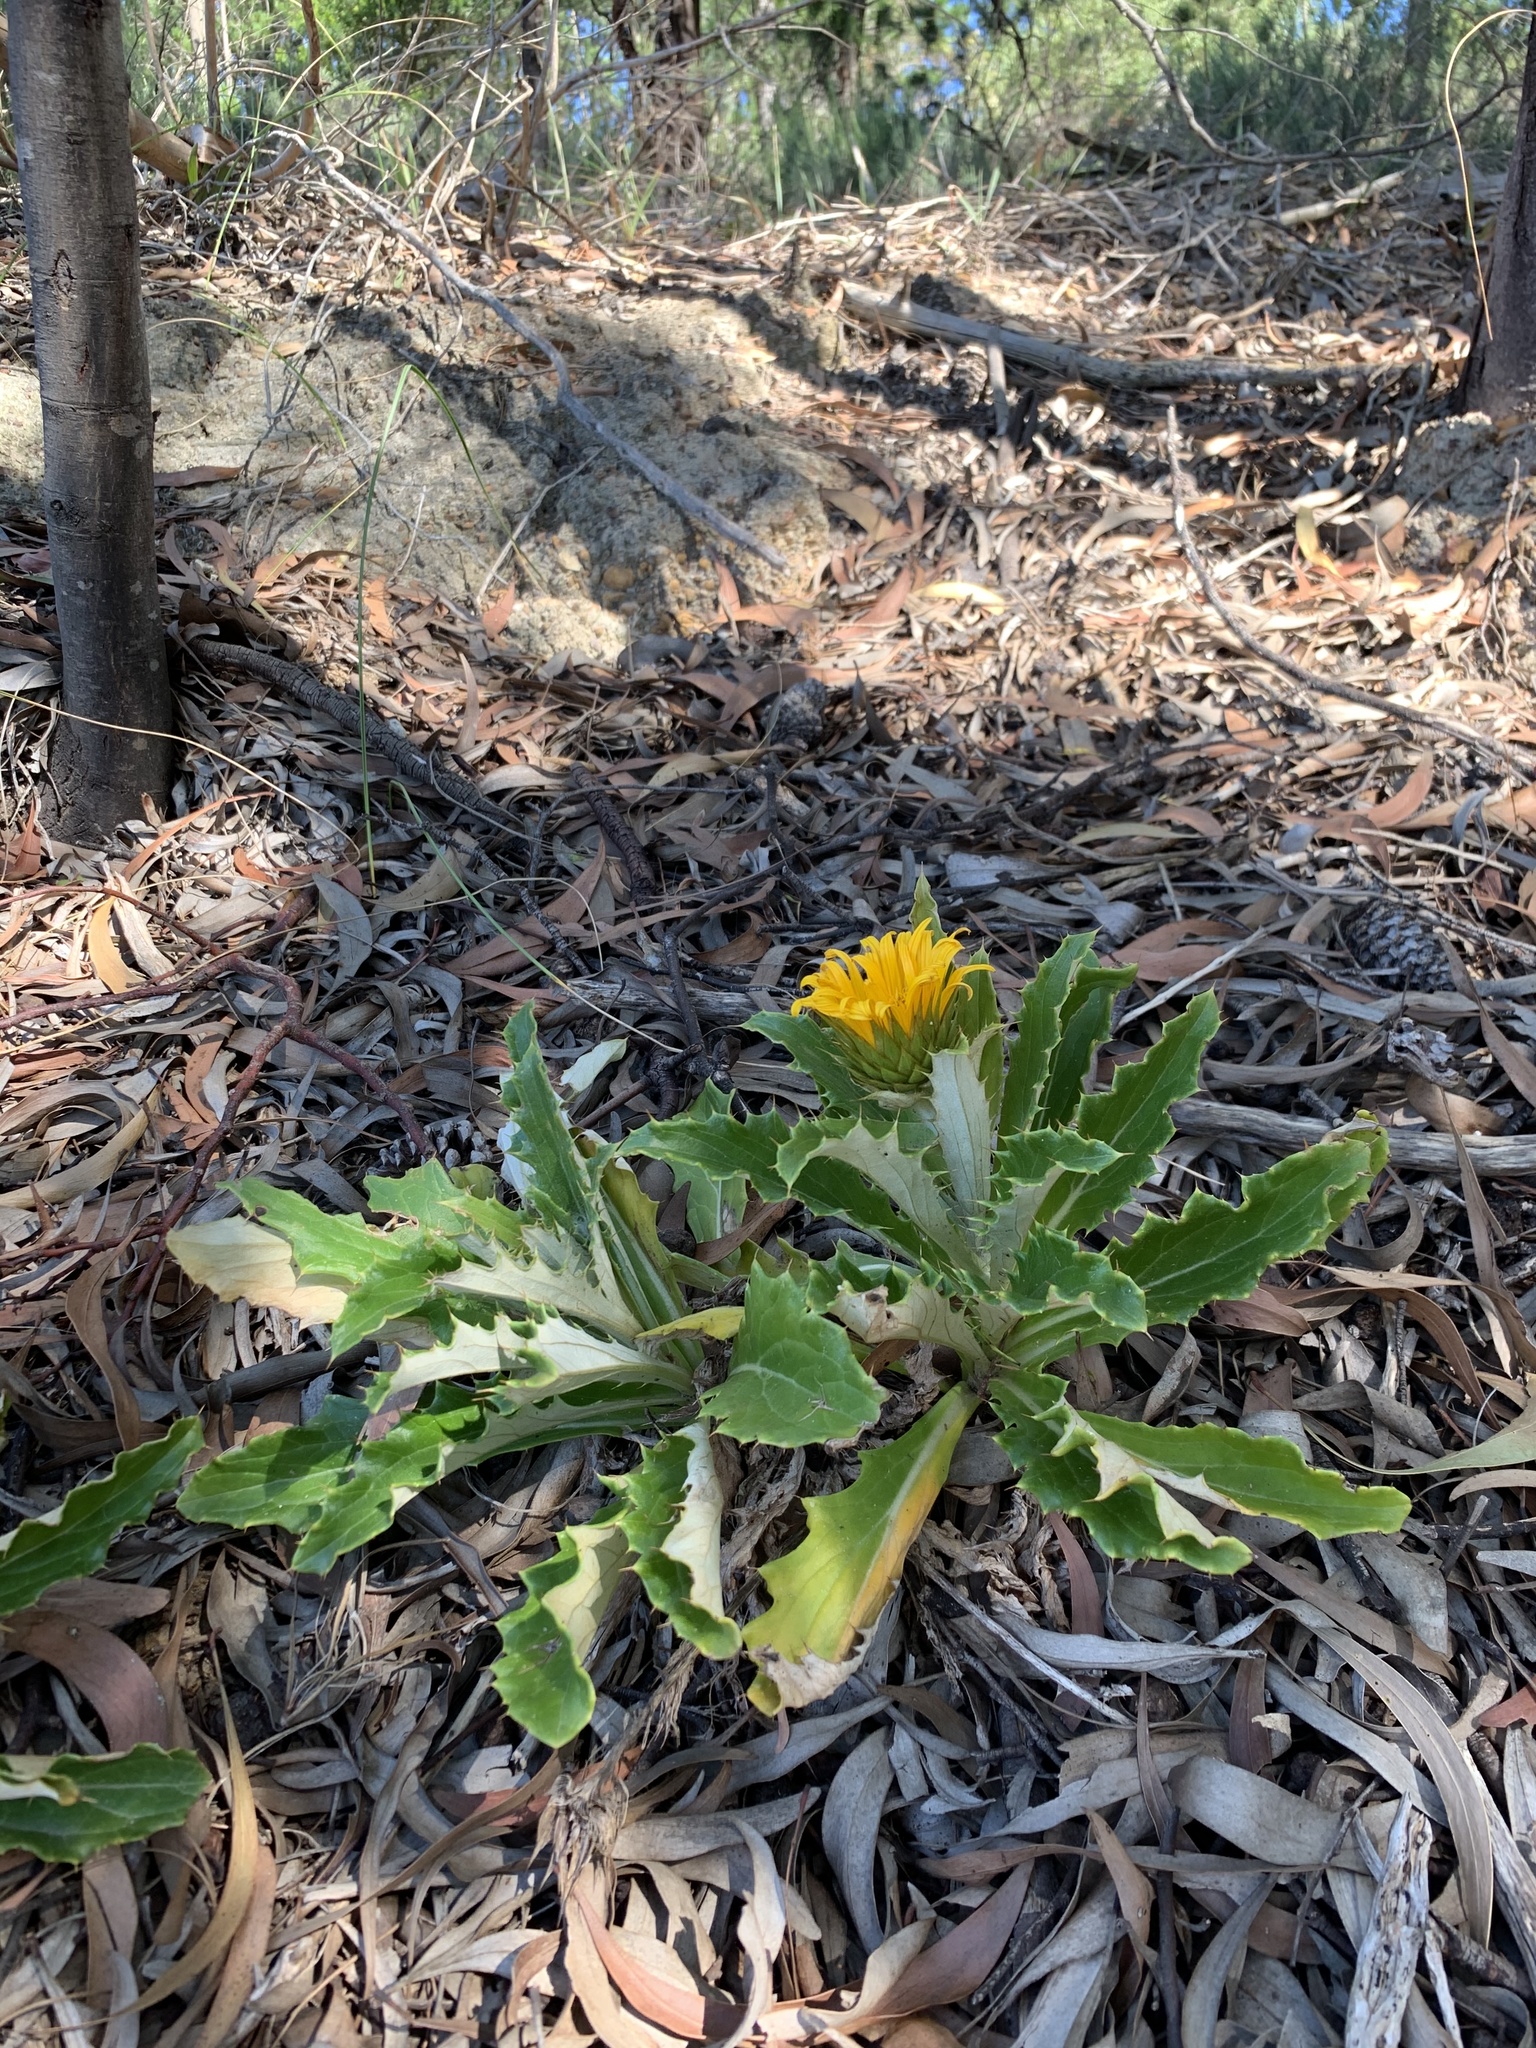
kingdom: Plantae
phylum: Tracheophyta
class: Magnoliopsida
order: Asterales
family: Asteraceae
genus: Berkheya
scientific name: Berkheya armata
